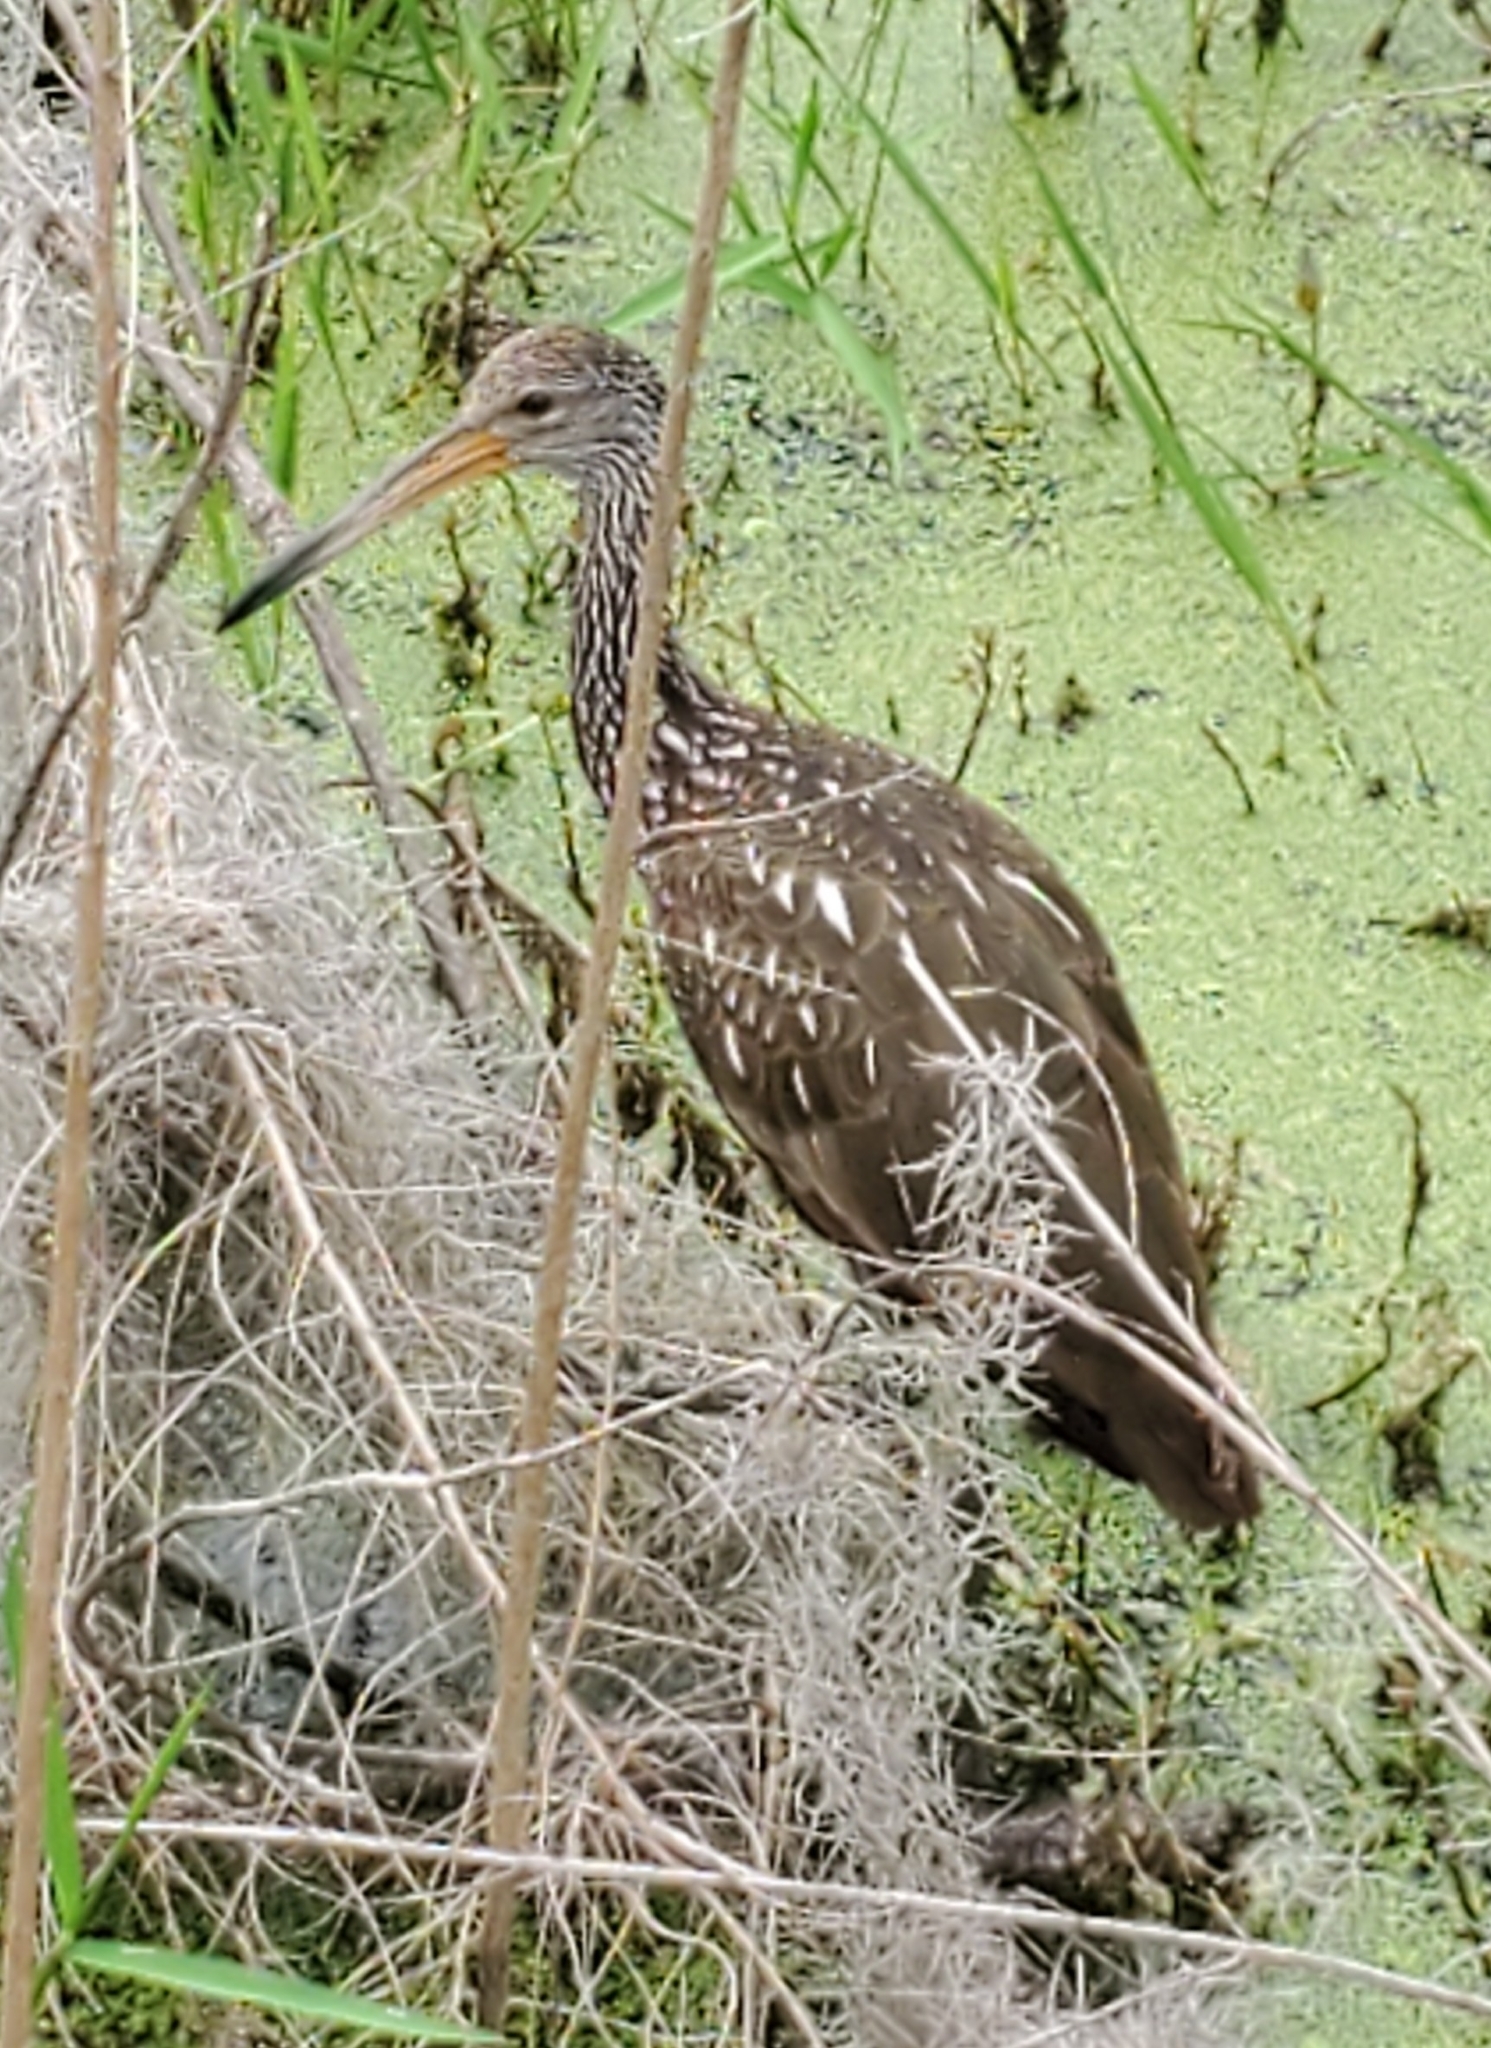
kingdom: Animalia
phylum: Chordata
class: Aves
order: Gruiformes
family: Aramidae
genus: Aramus
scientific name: Aramus guarauna
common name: Limpkin
